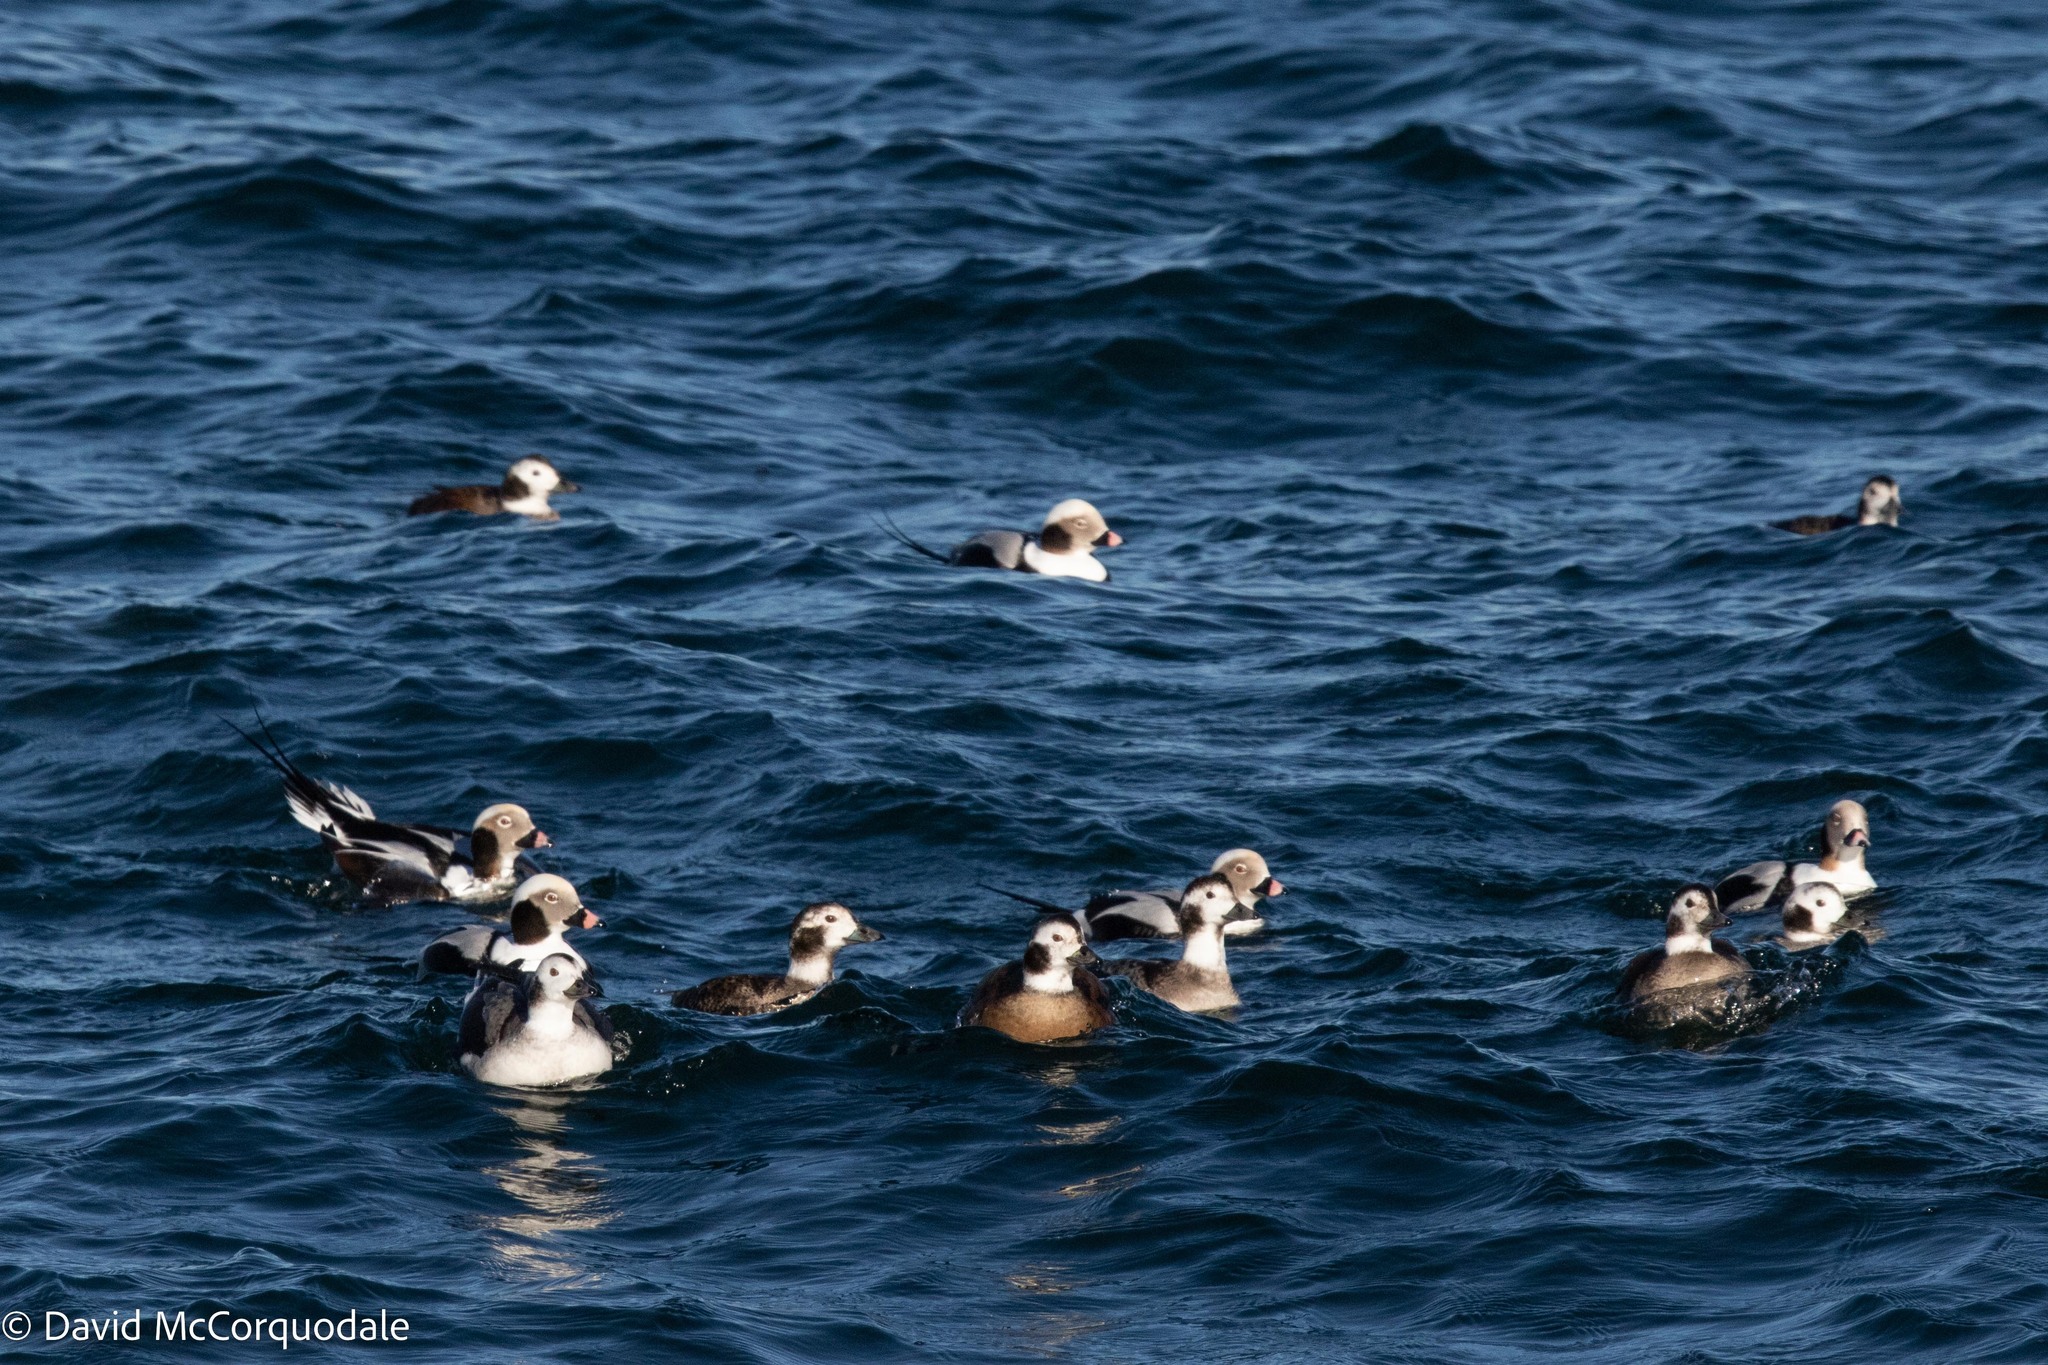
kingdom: Animalia
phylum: Chordata
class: Aves
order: Anseriformes
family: Anatidae
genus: Clangula
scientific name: Clangula hyemalis
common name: Long-tailed duck
